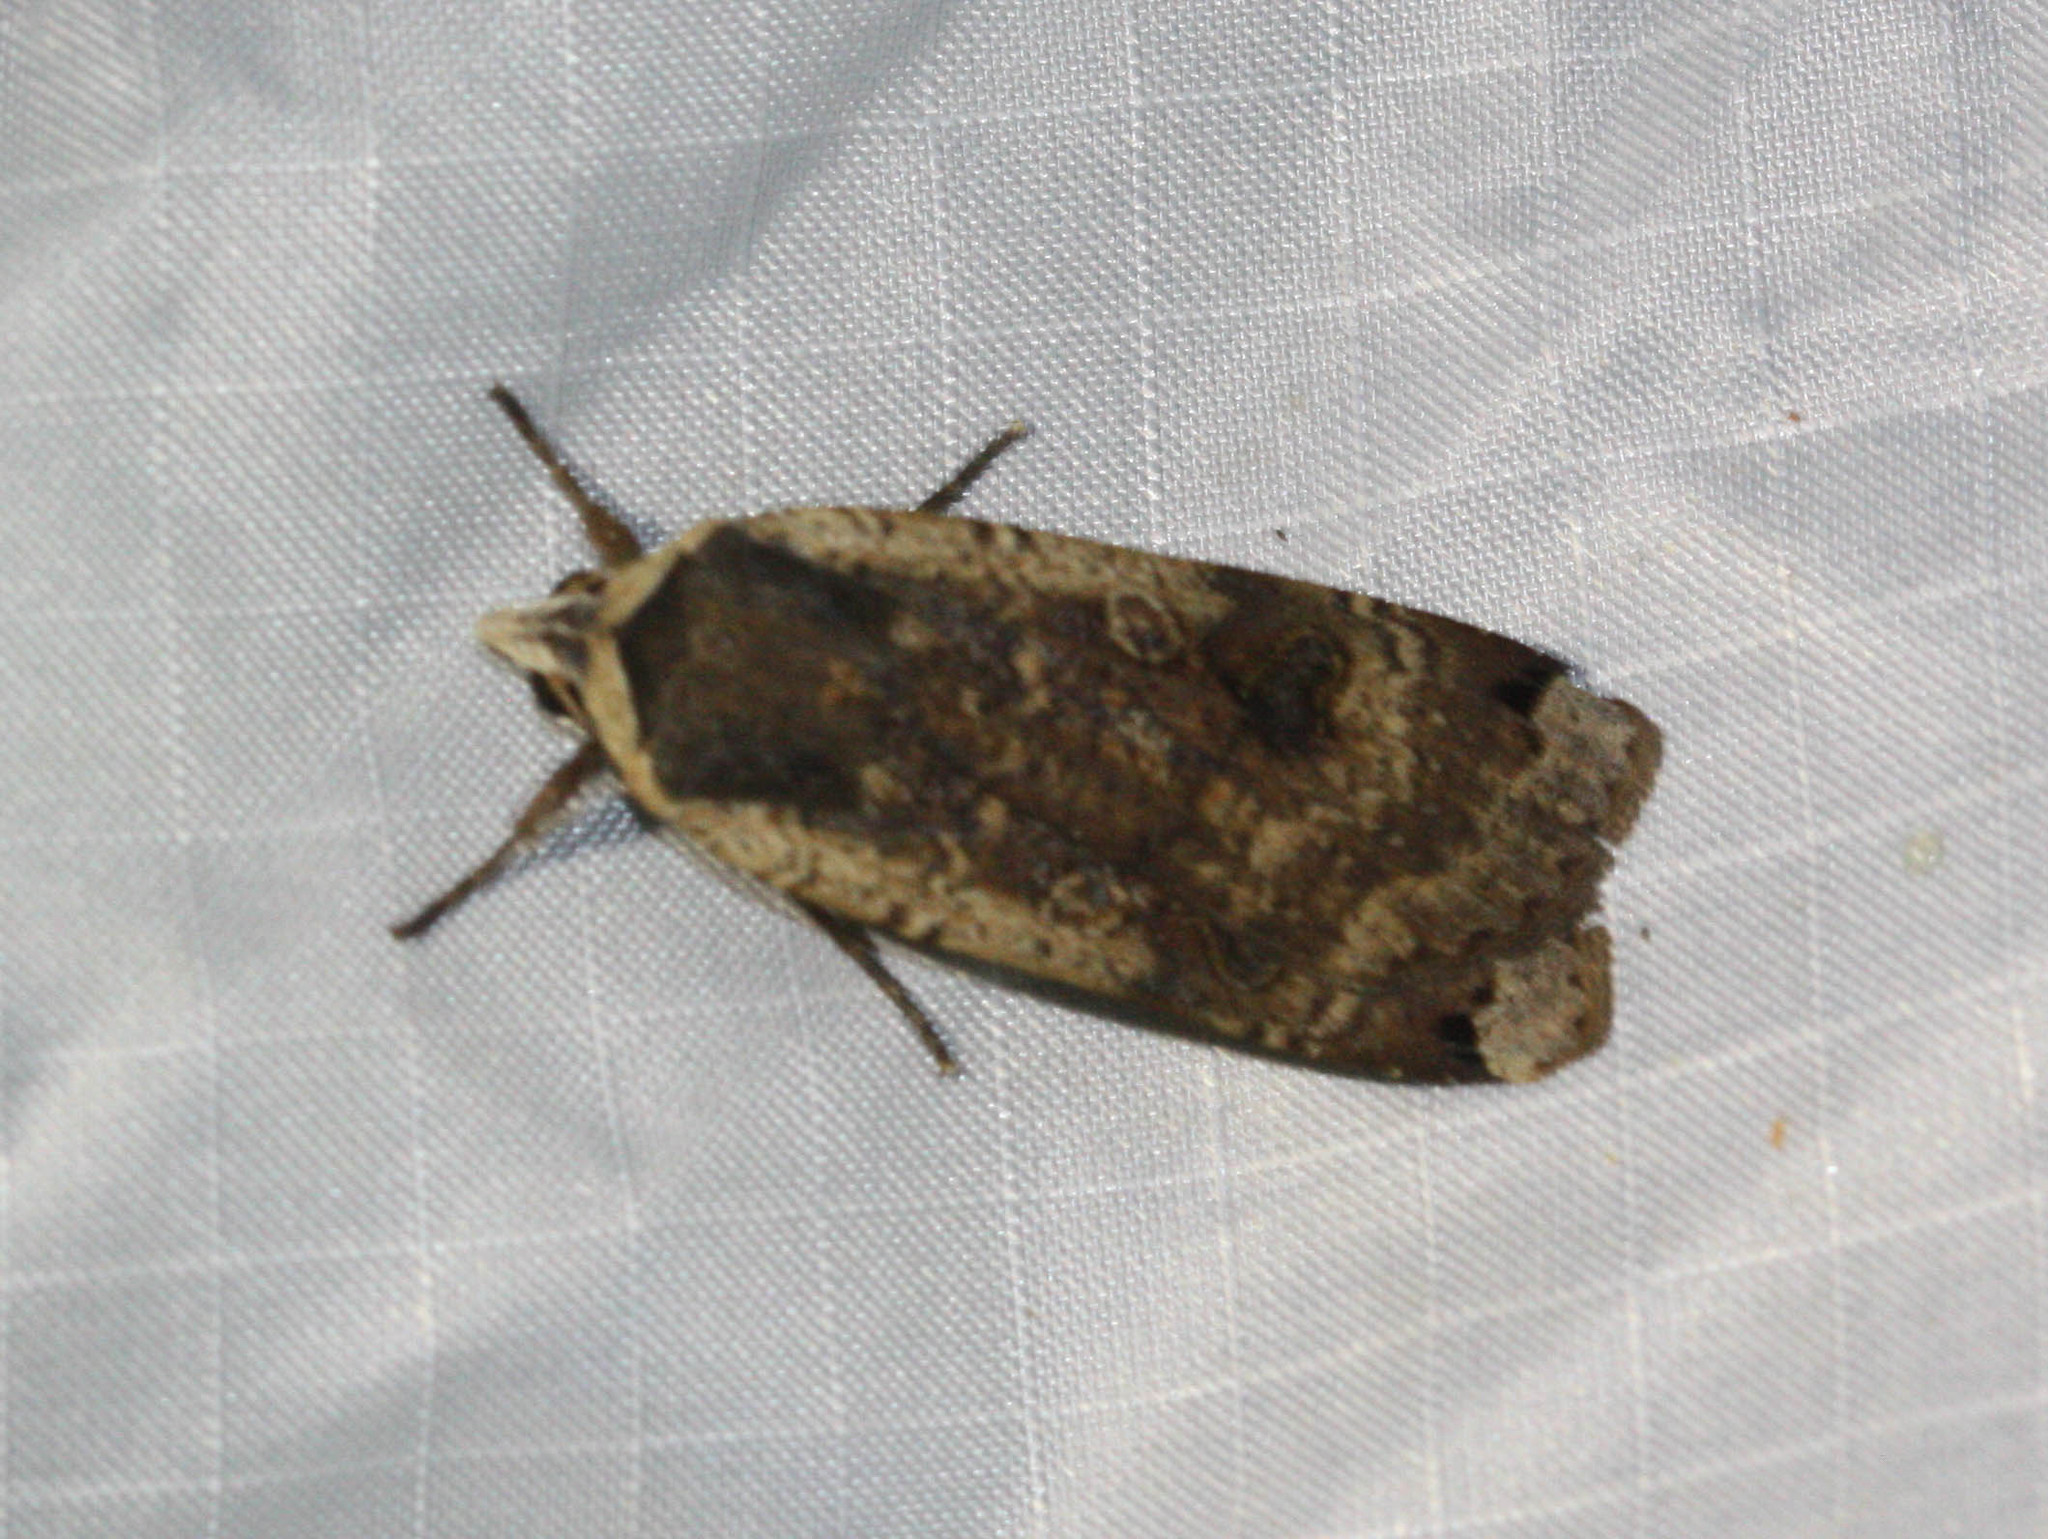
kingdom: Animalia
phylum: Arthropoda
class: Insecta
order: Lepidoptera
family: Noctuidae
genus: Noctua
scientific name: Noctua pronuba
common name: Large yellow underwing
